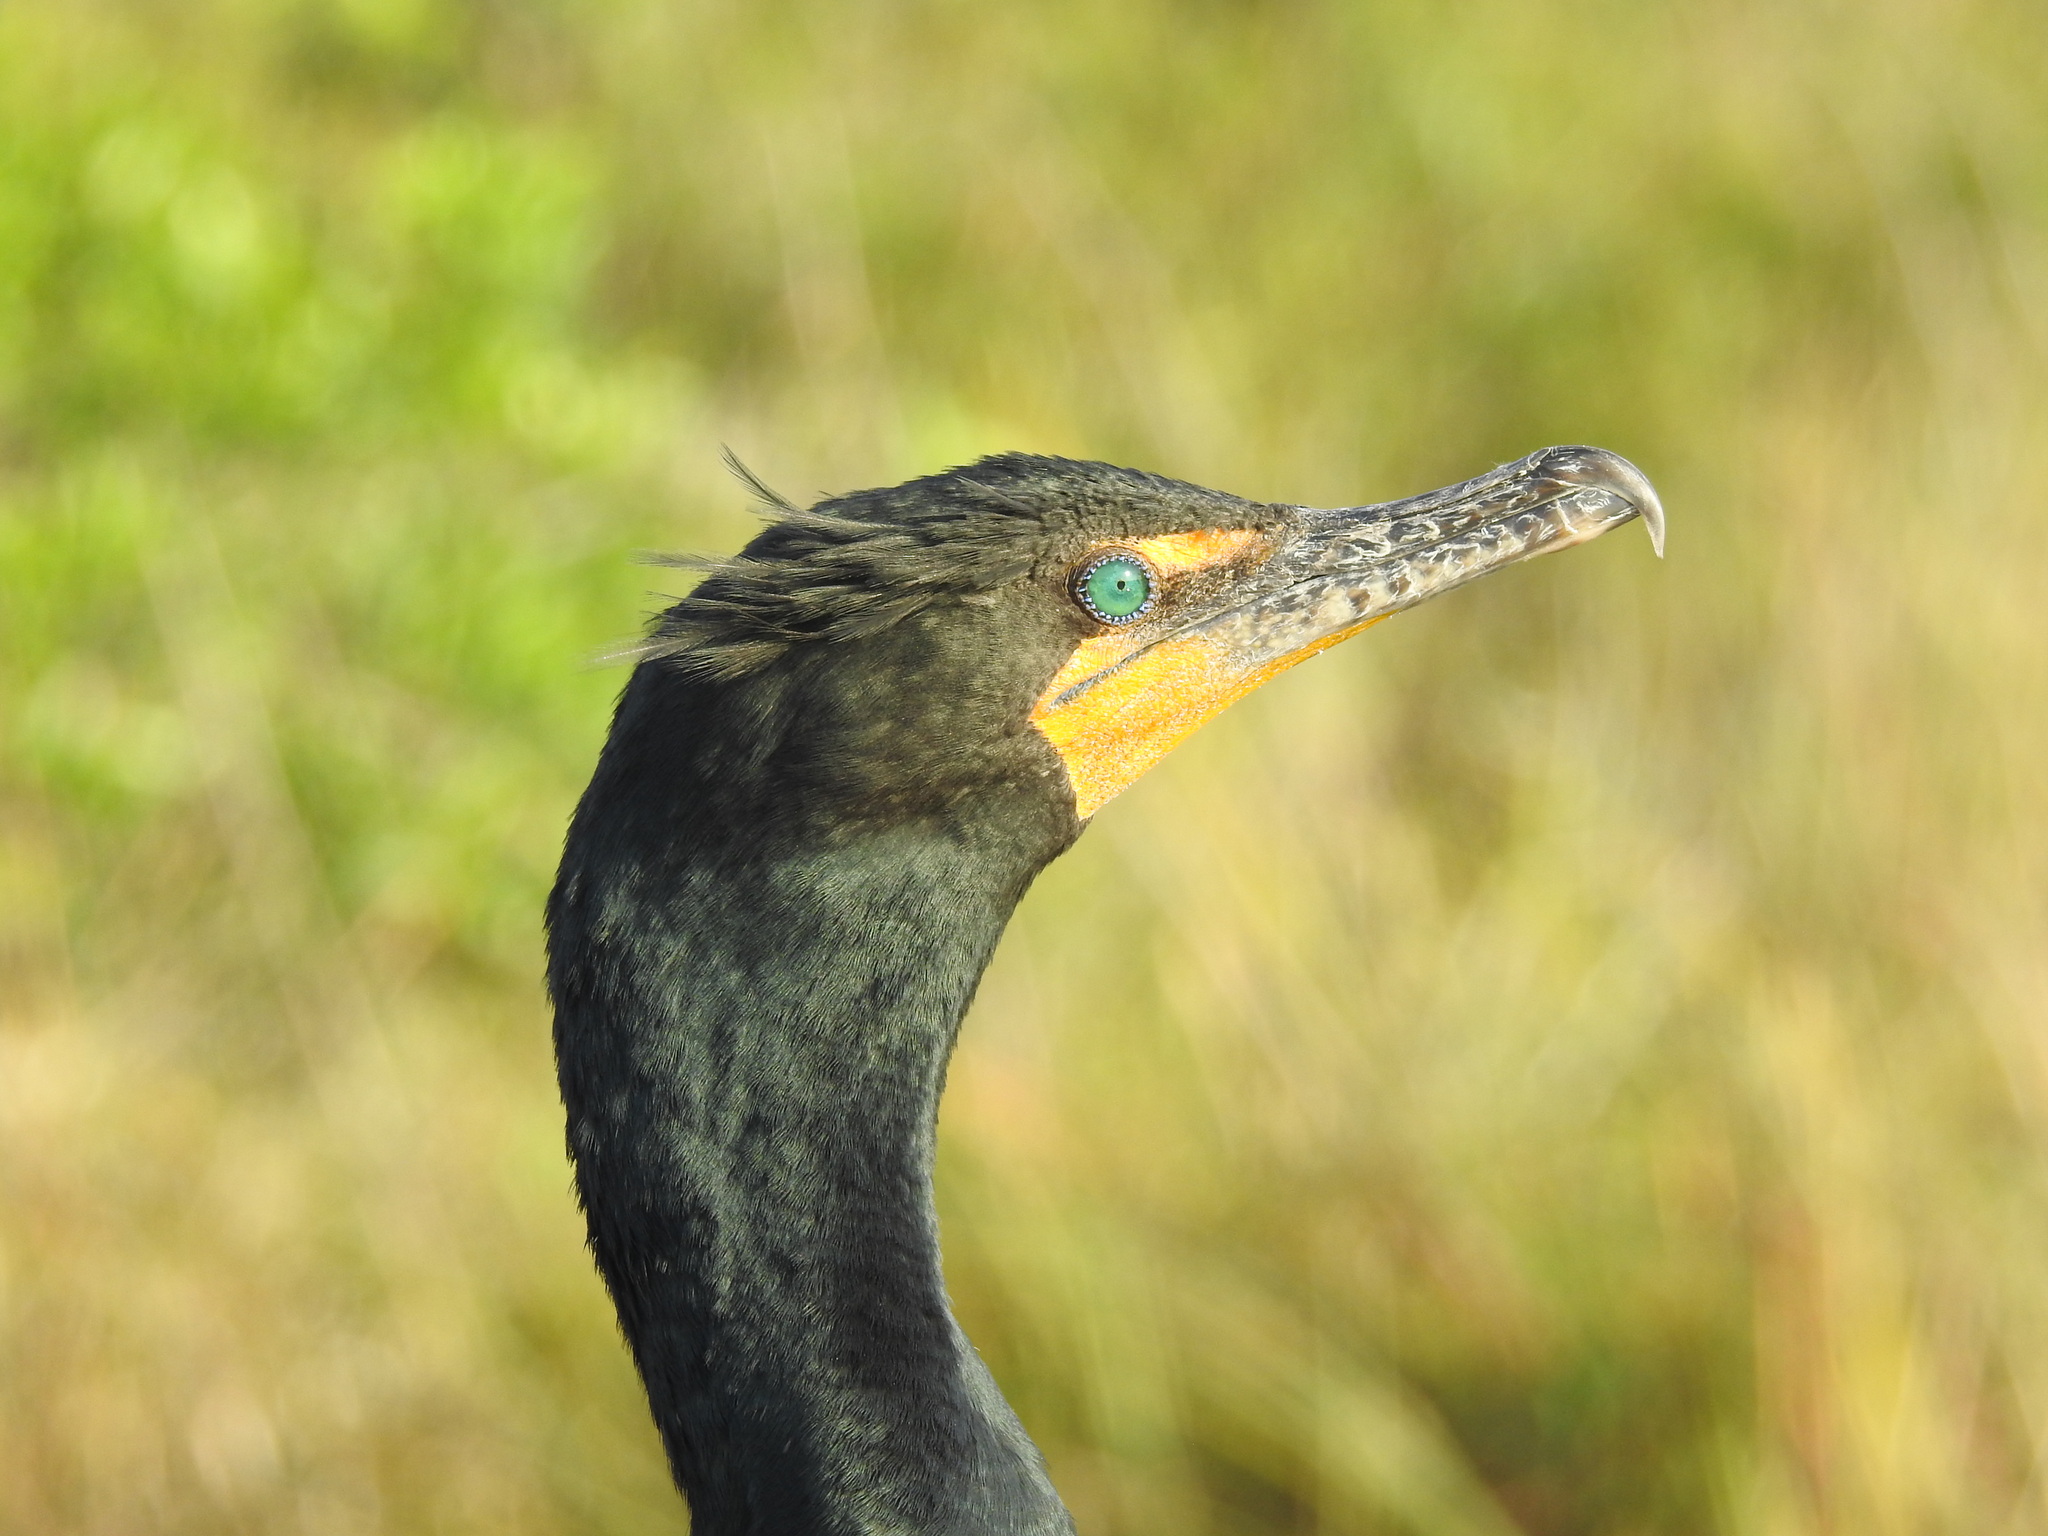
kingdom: Animalia
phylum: Chordata
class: Aves
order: Suliformes
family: Phalacrocoracidae
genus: Phalacrocorax
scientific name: Phalacrocorax auritus
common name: Double-crested cormorant
